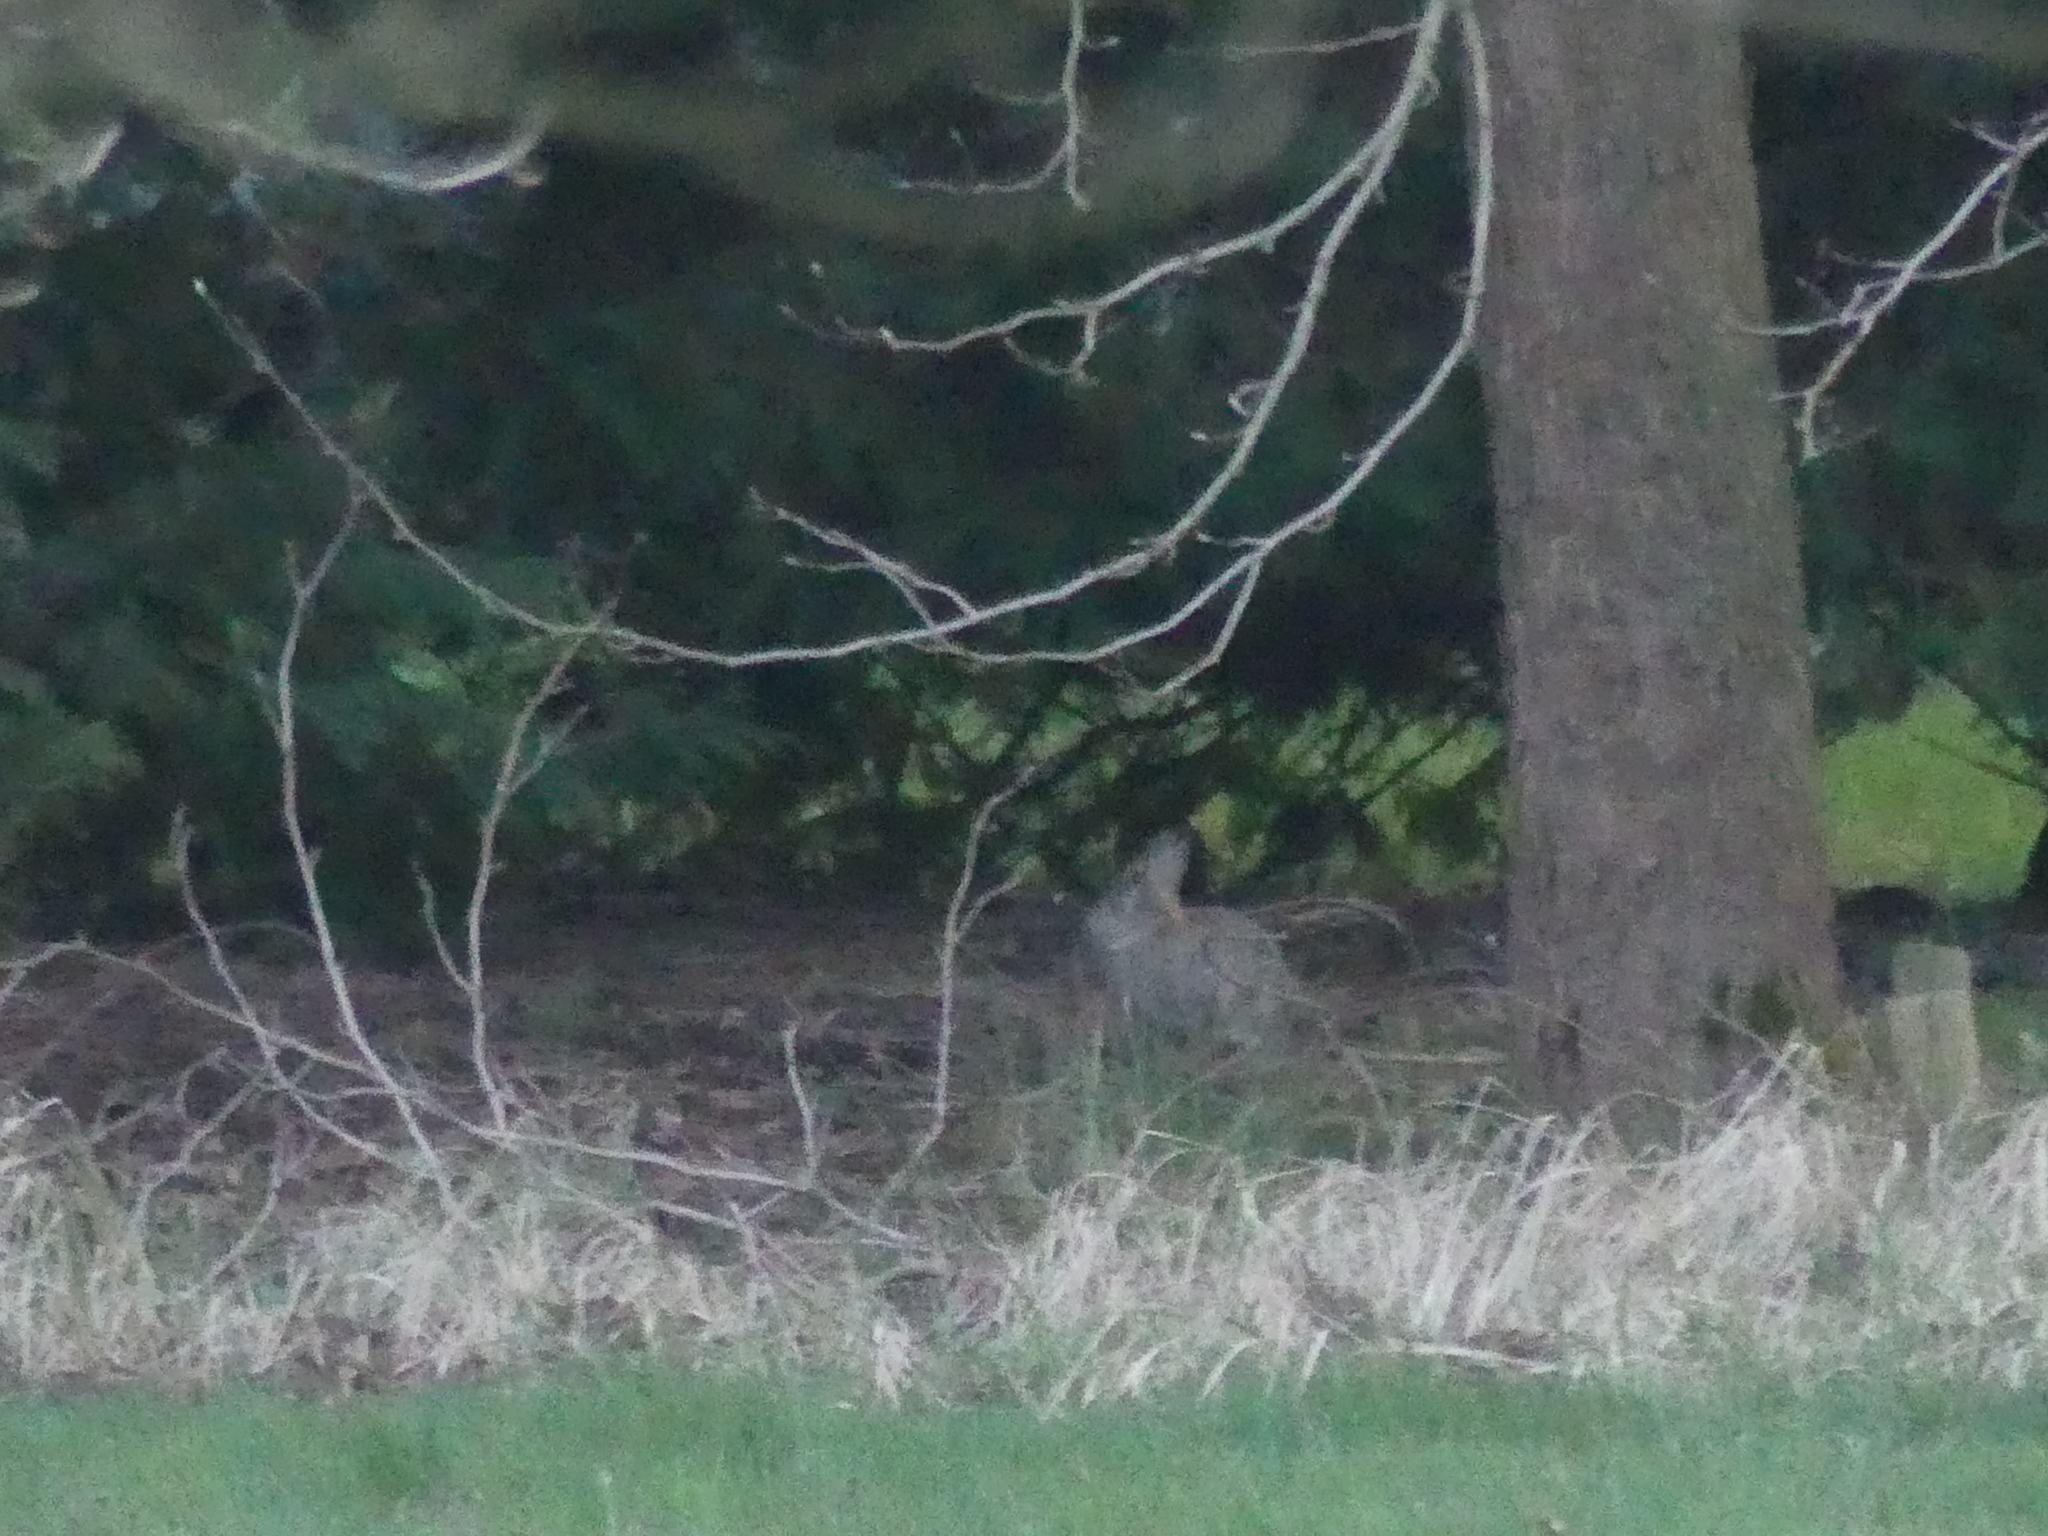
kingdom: Animalia
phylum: Chordata
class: Mammalia
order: Lagomorpha
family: Leporidae
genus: Oryctolagus
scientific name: Oryctolagus cuniculus
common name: European rabbit
